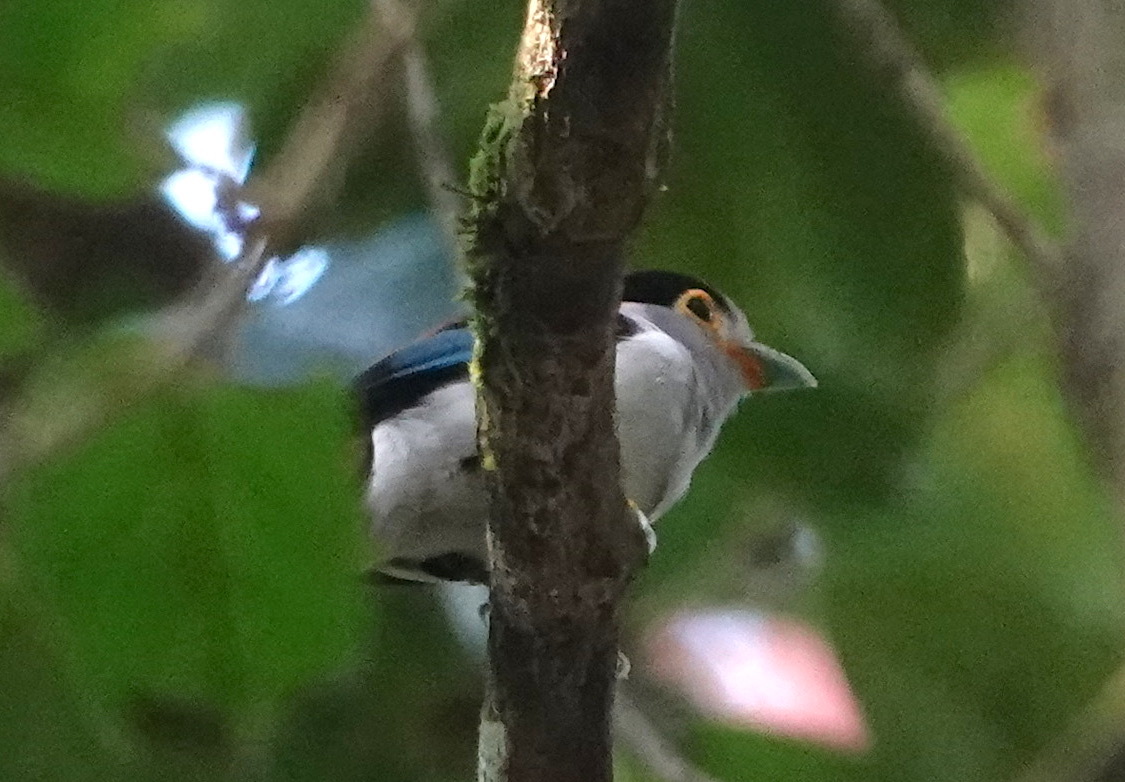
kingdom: Animalia
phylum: Chordata
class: Aves
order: Passeriformes
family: Eurylaimidae
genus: Serilophus
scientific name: Serilophus lunatus
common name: Silver-breasted broadbill
